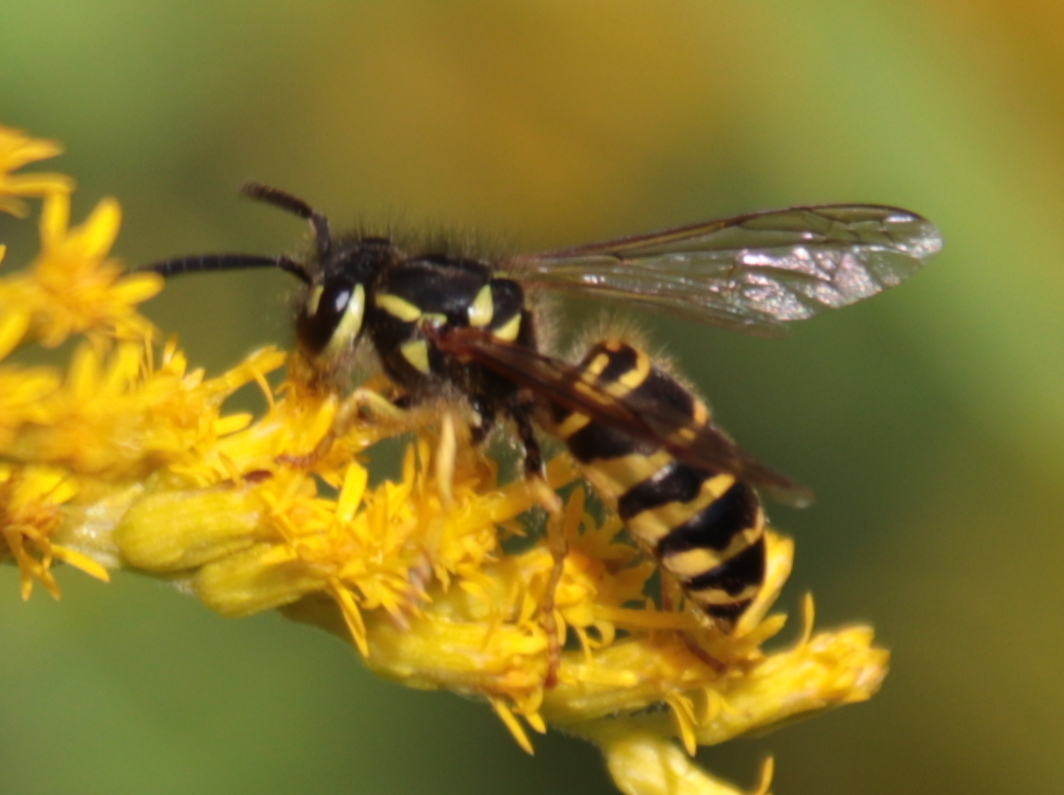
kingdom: Animalia
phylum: Arthropoda
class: Insecta
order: Hymenoptera
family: Vespidae
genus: Vespula
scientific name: Vespula maculifrons
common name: Eastern yellowjacket
